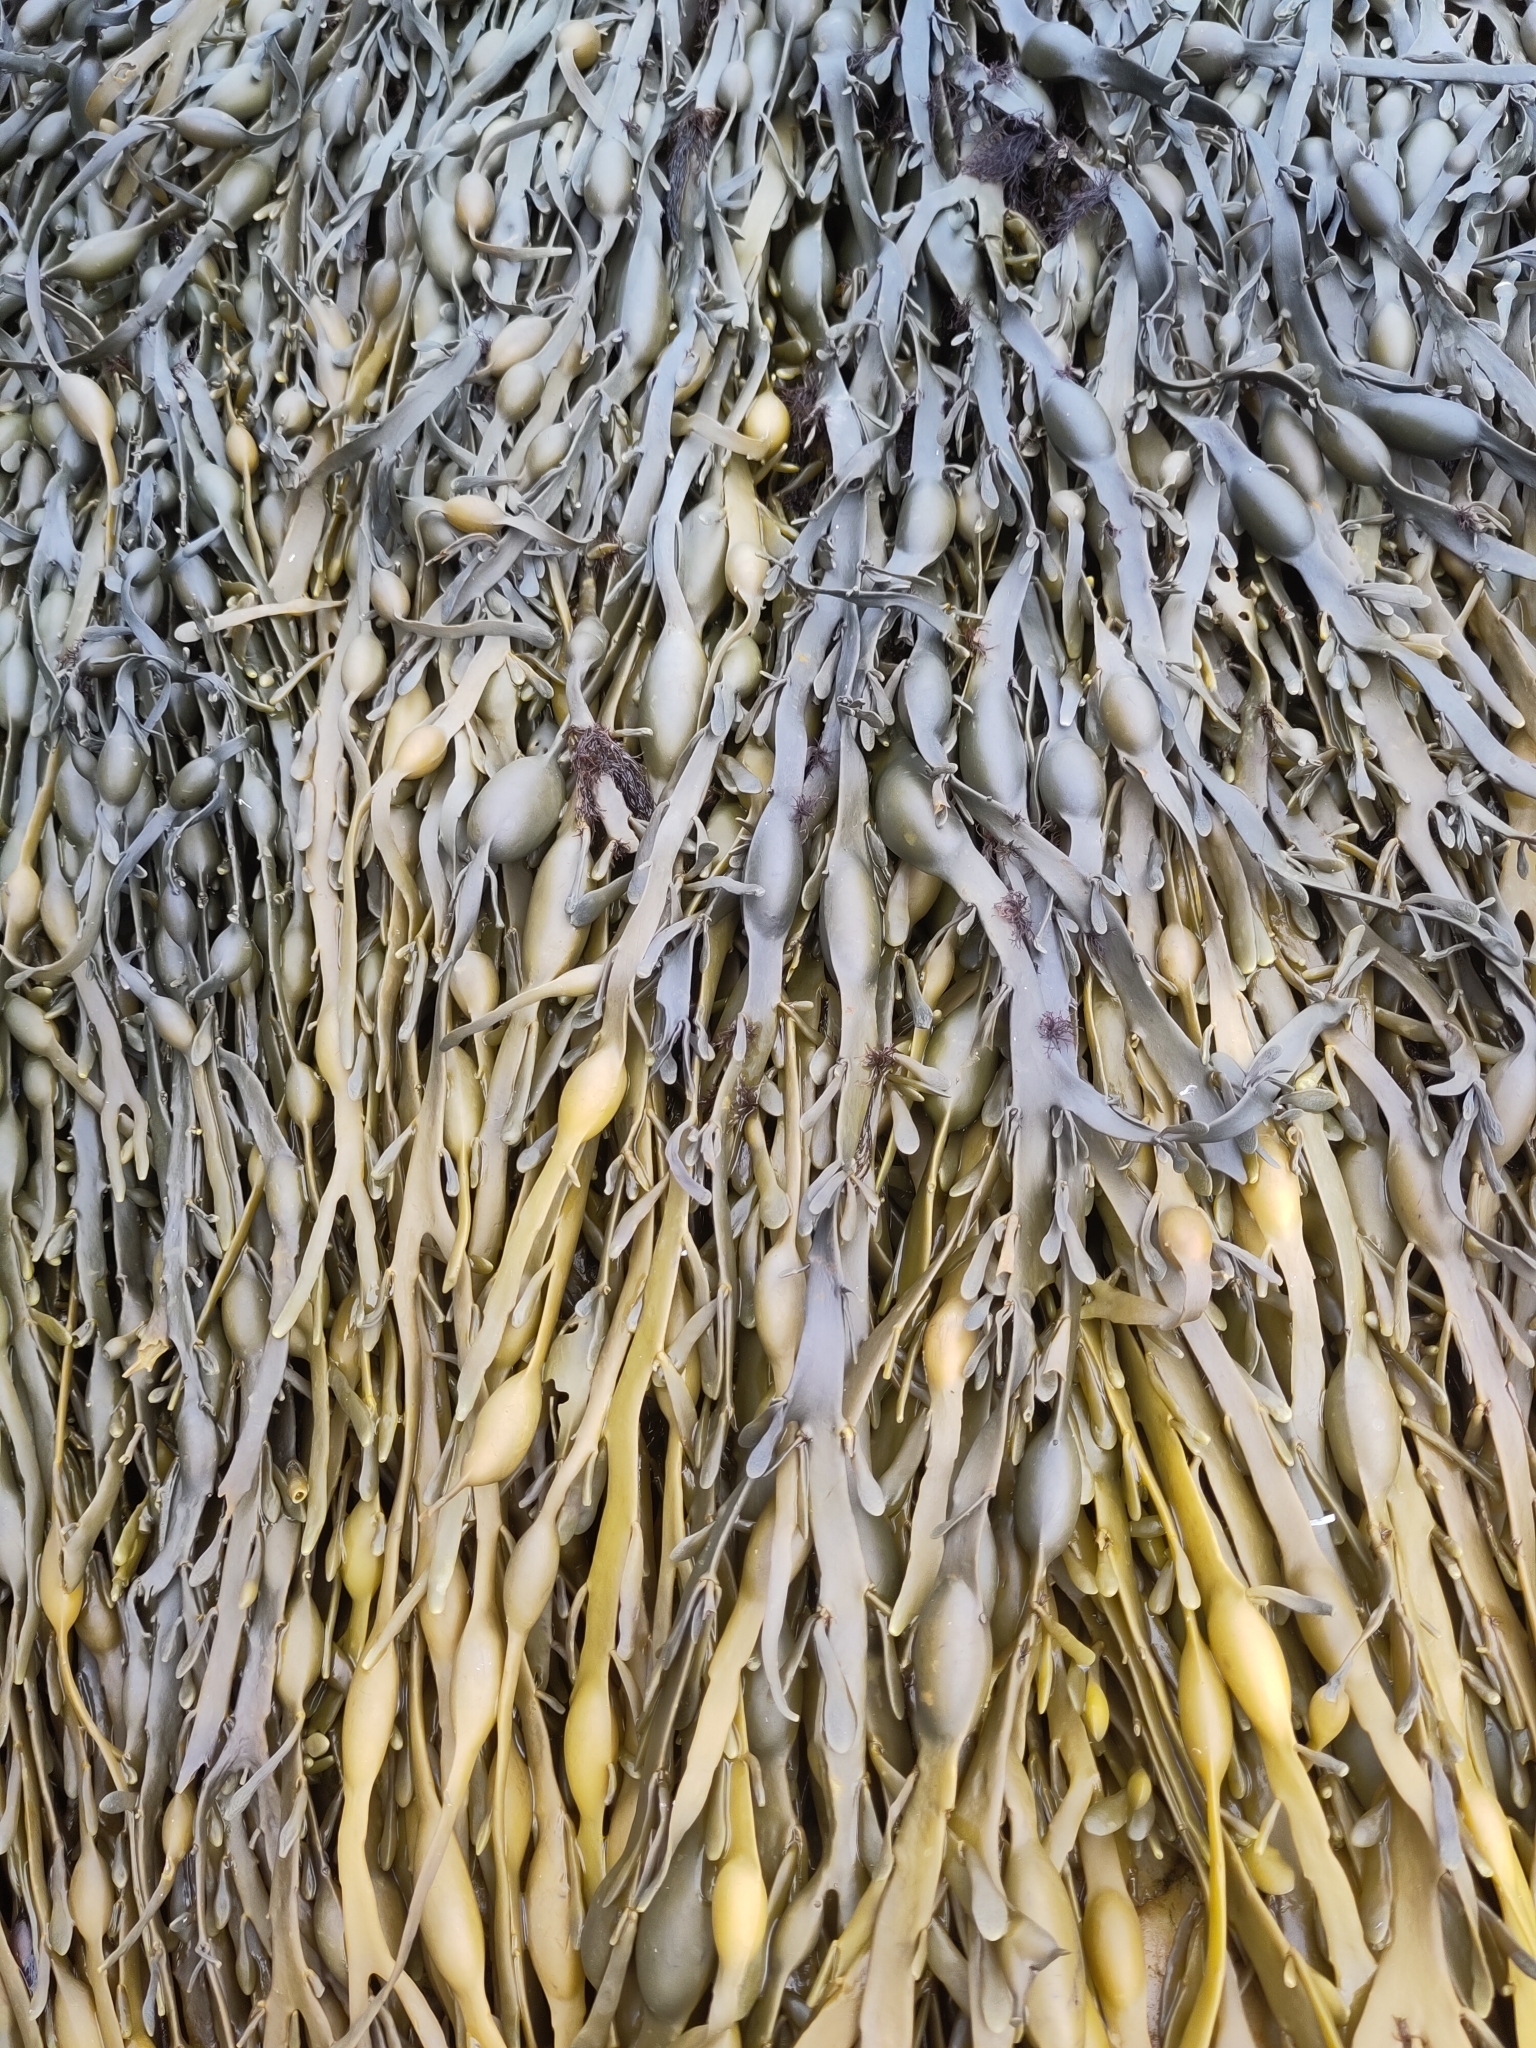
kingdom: Chromista
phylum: Ochrophyta
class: Phaeophyceae
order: Fucales
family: Fucaceae
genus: Ascophyllum
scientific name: Ascophyllum nodosum
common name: Knotted wrack
